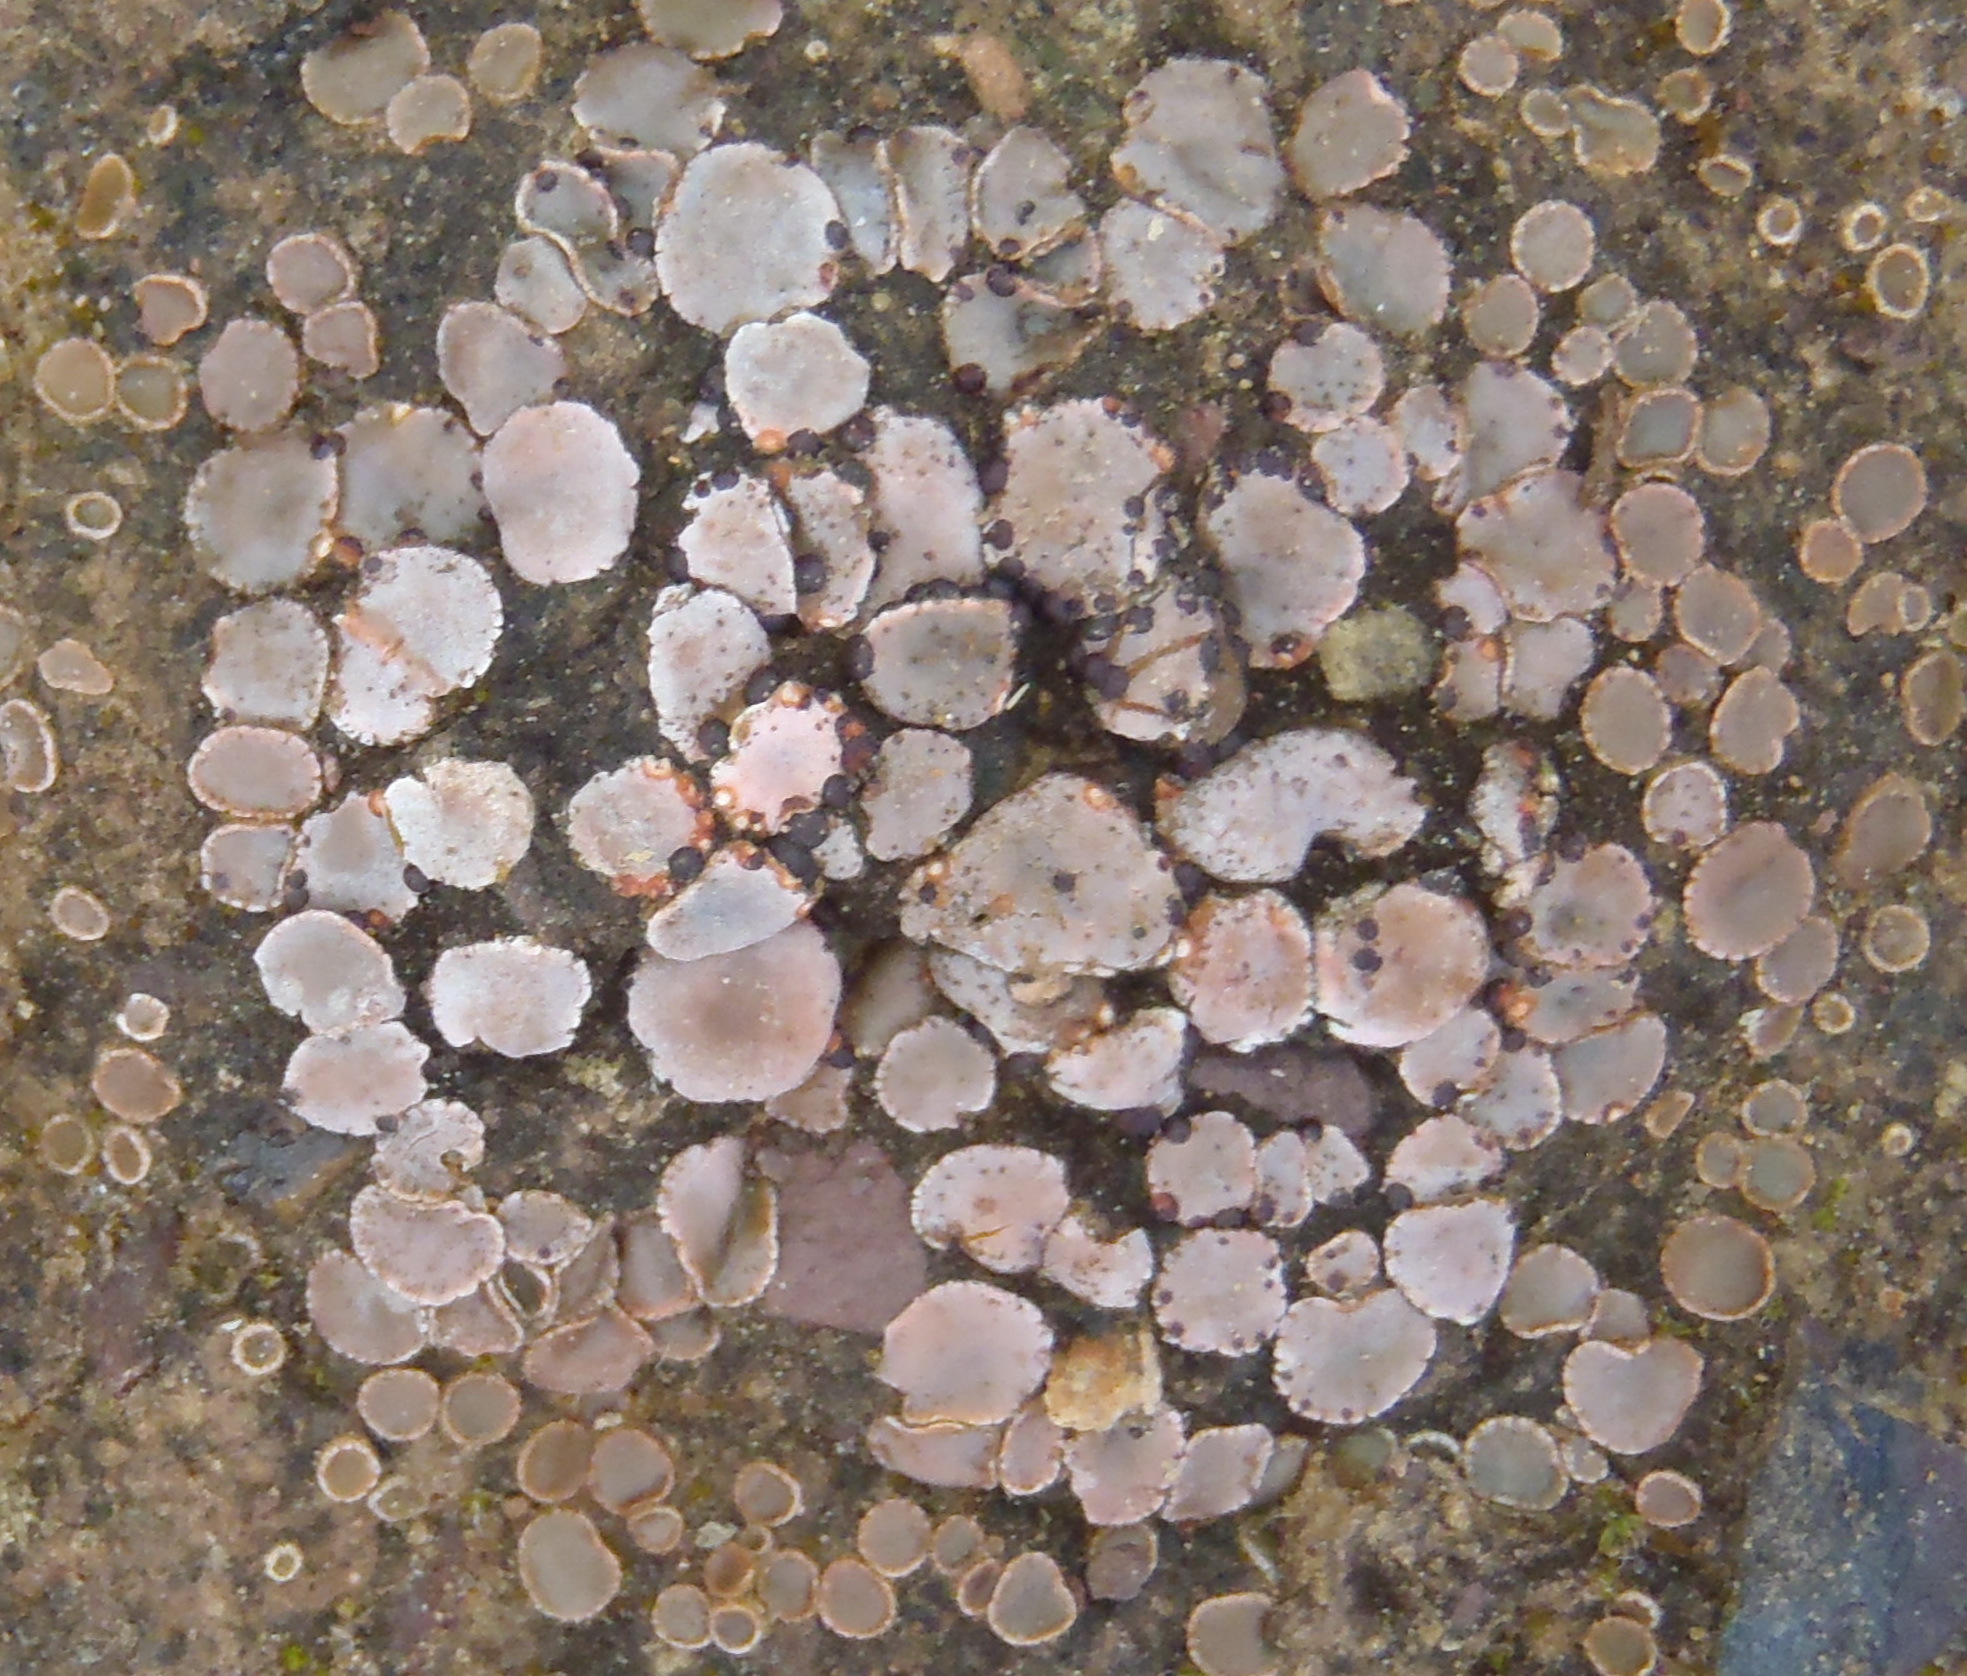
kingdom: Fungi
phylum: Ascomycota
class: Lecanoromycetes
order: Lecanorales
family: Psoraceae
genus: Psora
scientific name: Psora crenata
